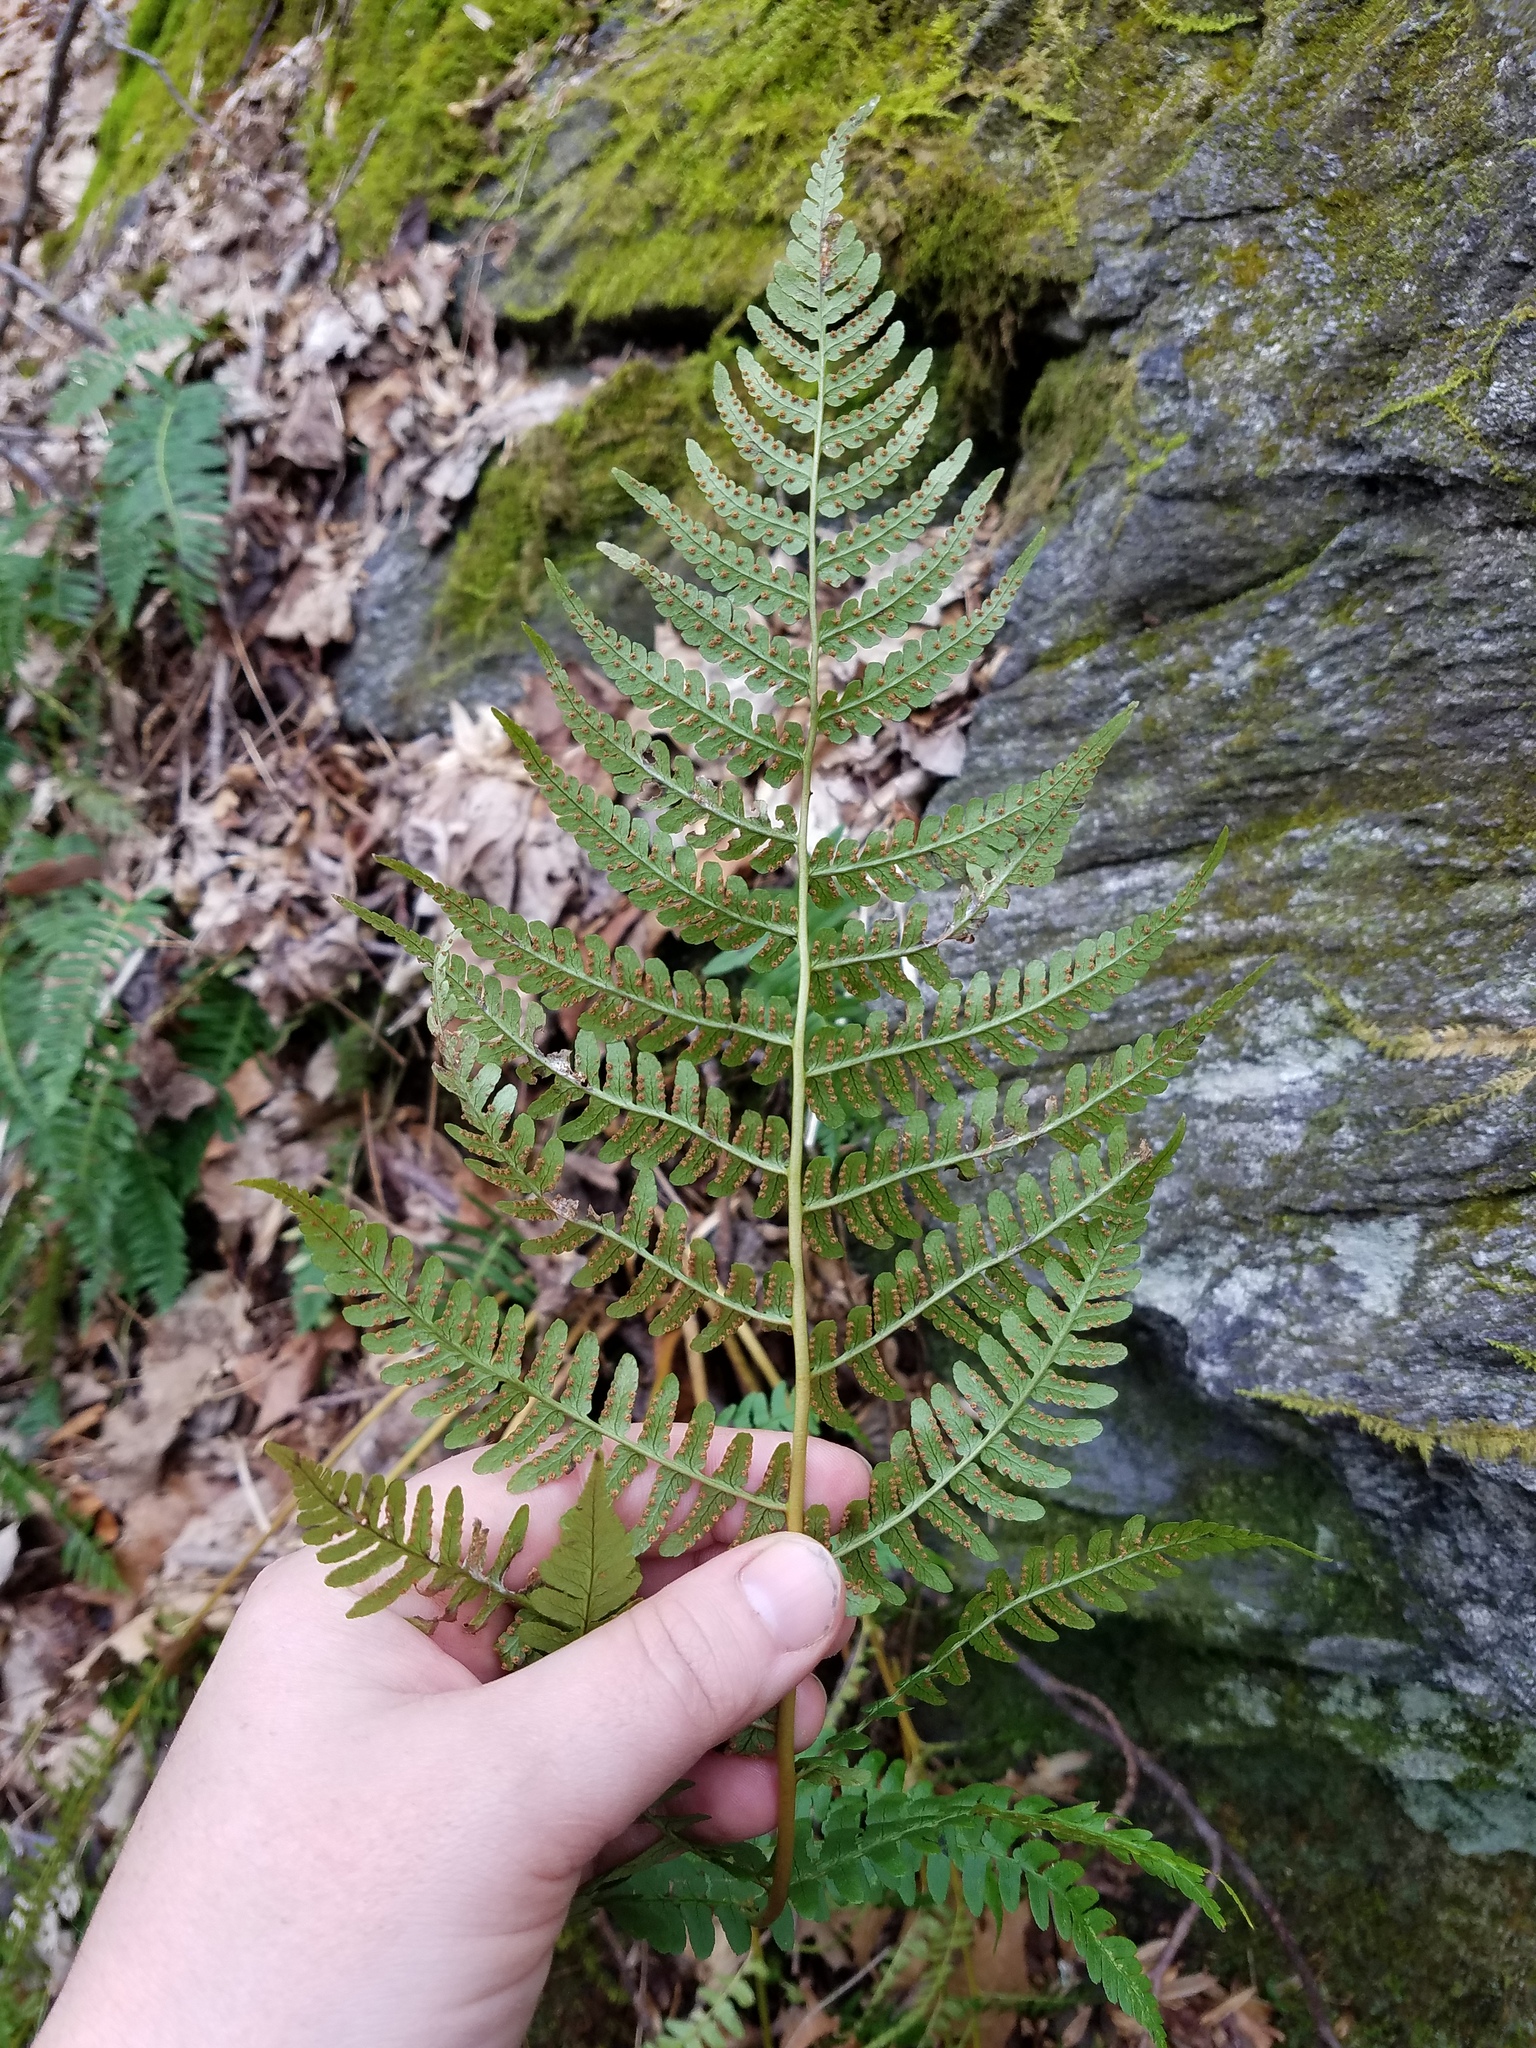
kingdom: Plantae
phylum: Tracheophyta
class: Polypodiopsida
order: Polypodiales
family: Dryopteridaceae
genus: Dryopteris
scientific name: Dryopteris marginalis
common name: Marginal wood fern
